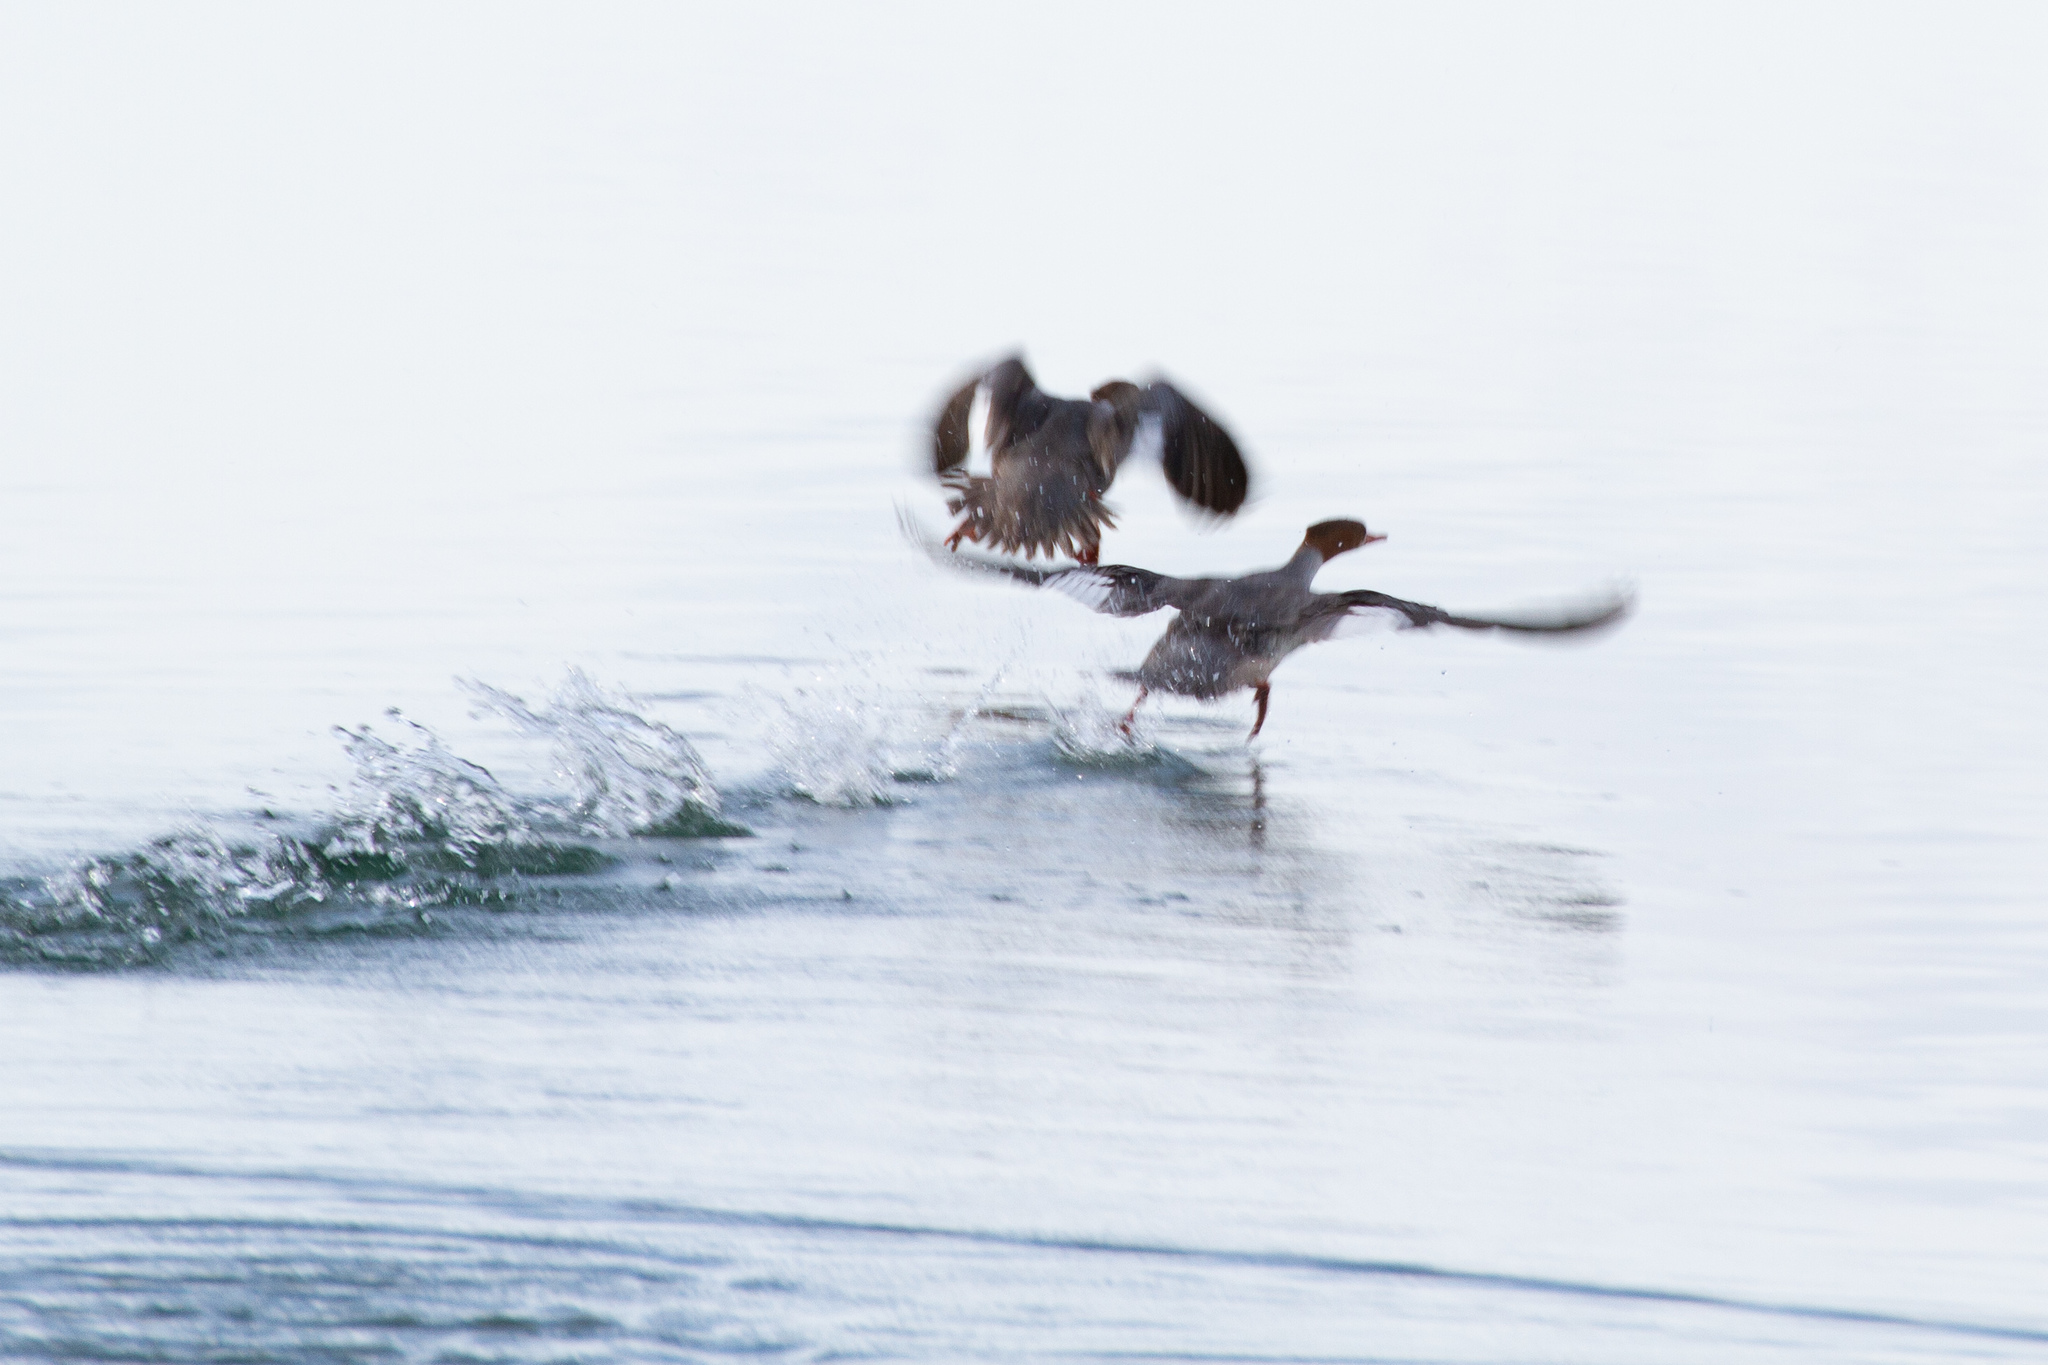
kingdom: Animalia
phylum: Chordata
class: Aves
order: Anseriformes
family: Anatidae
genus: Mergus
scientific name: Mergus merganser
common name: Common merganser
